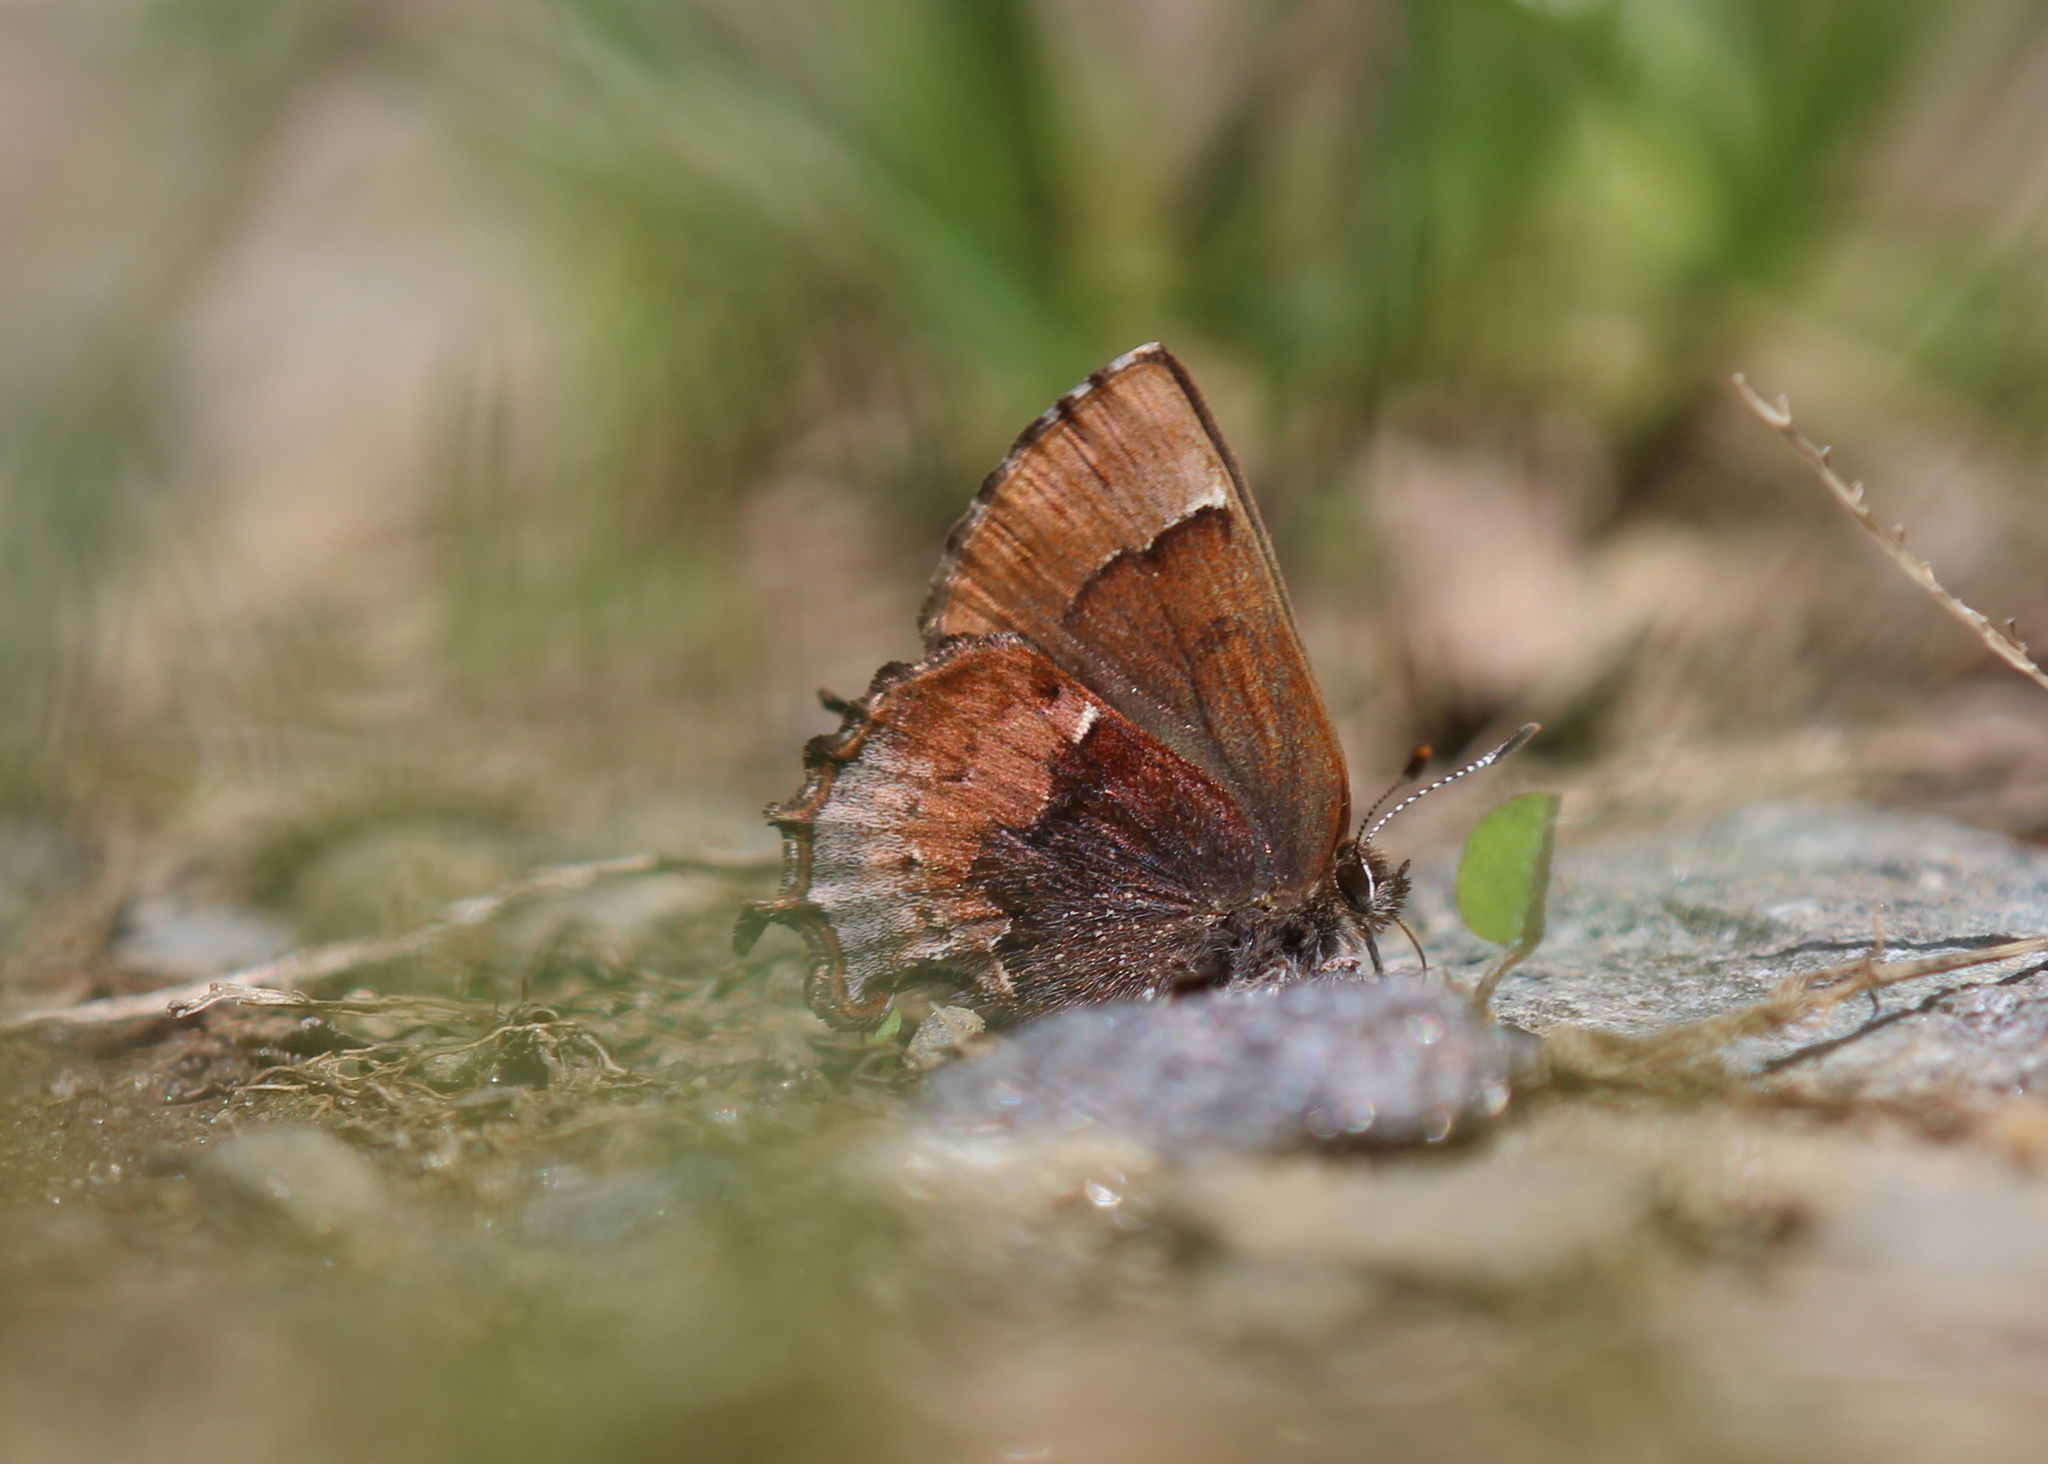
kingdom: Animalia
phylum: Arthropoda
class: Insecta
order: Lepidoptera
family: Lycaenidae
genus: Incisalia
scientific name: Incisalia henrici
